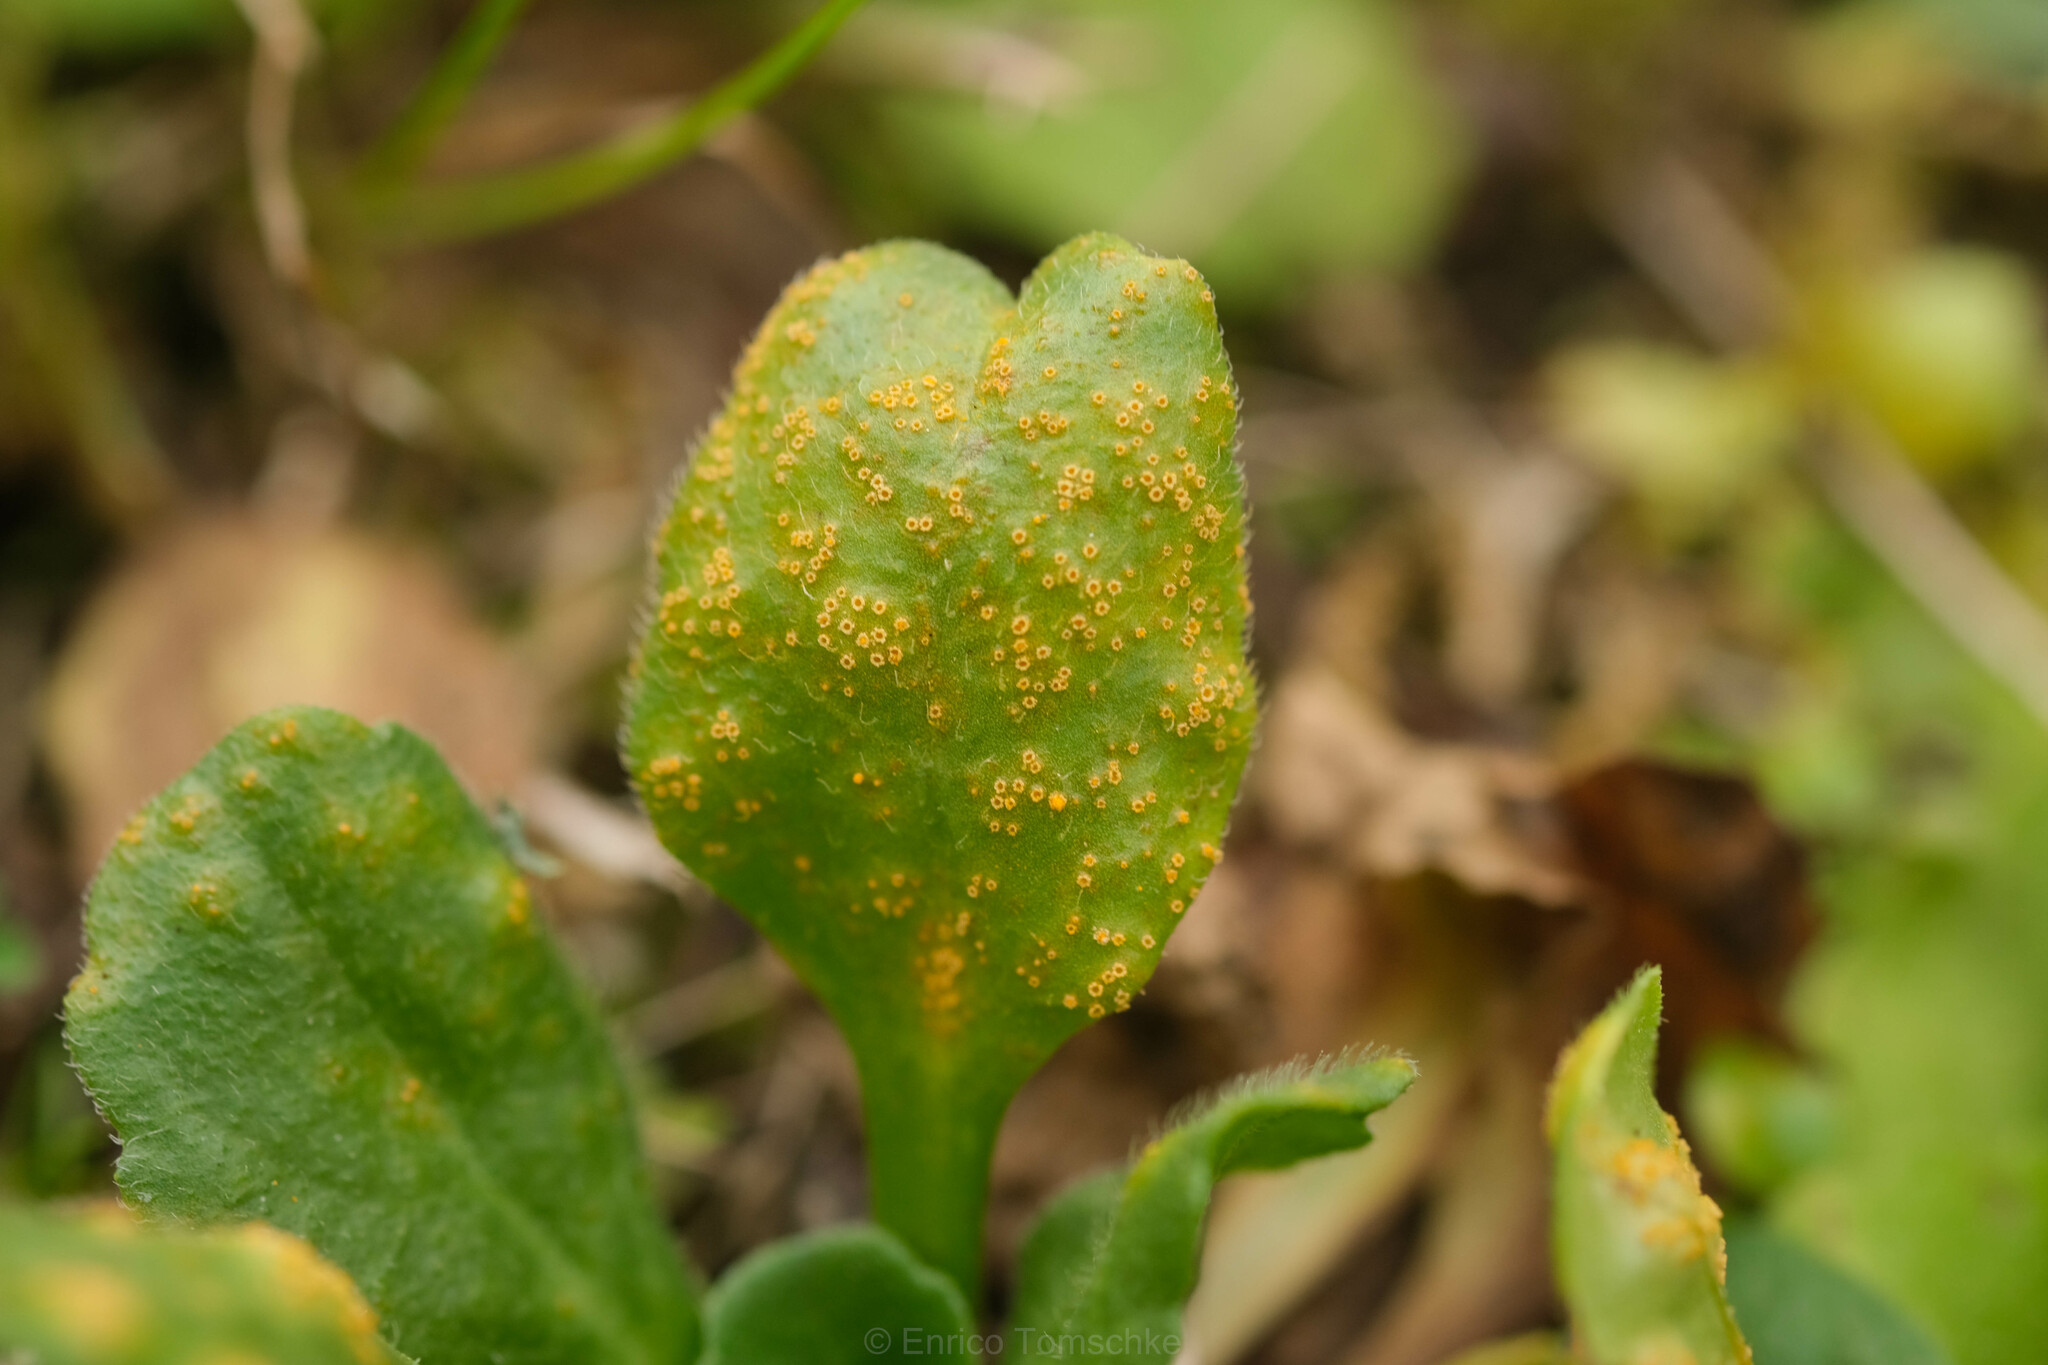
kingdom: Fungi
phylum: Basidiomycota
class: Pucciniomycetes
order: Pucciniales
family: Pucciniaceae
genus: Puccinia
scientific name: Puccinia lagenophorae
